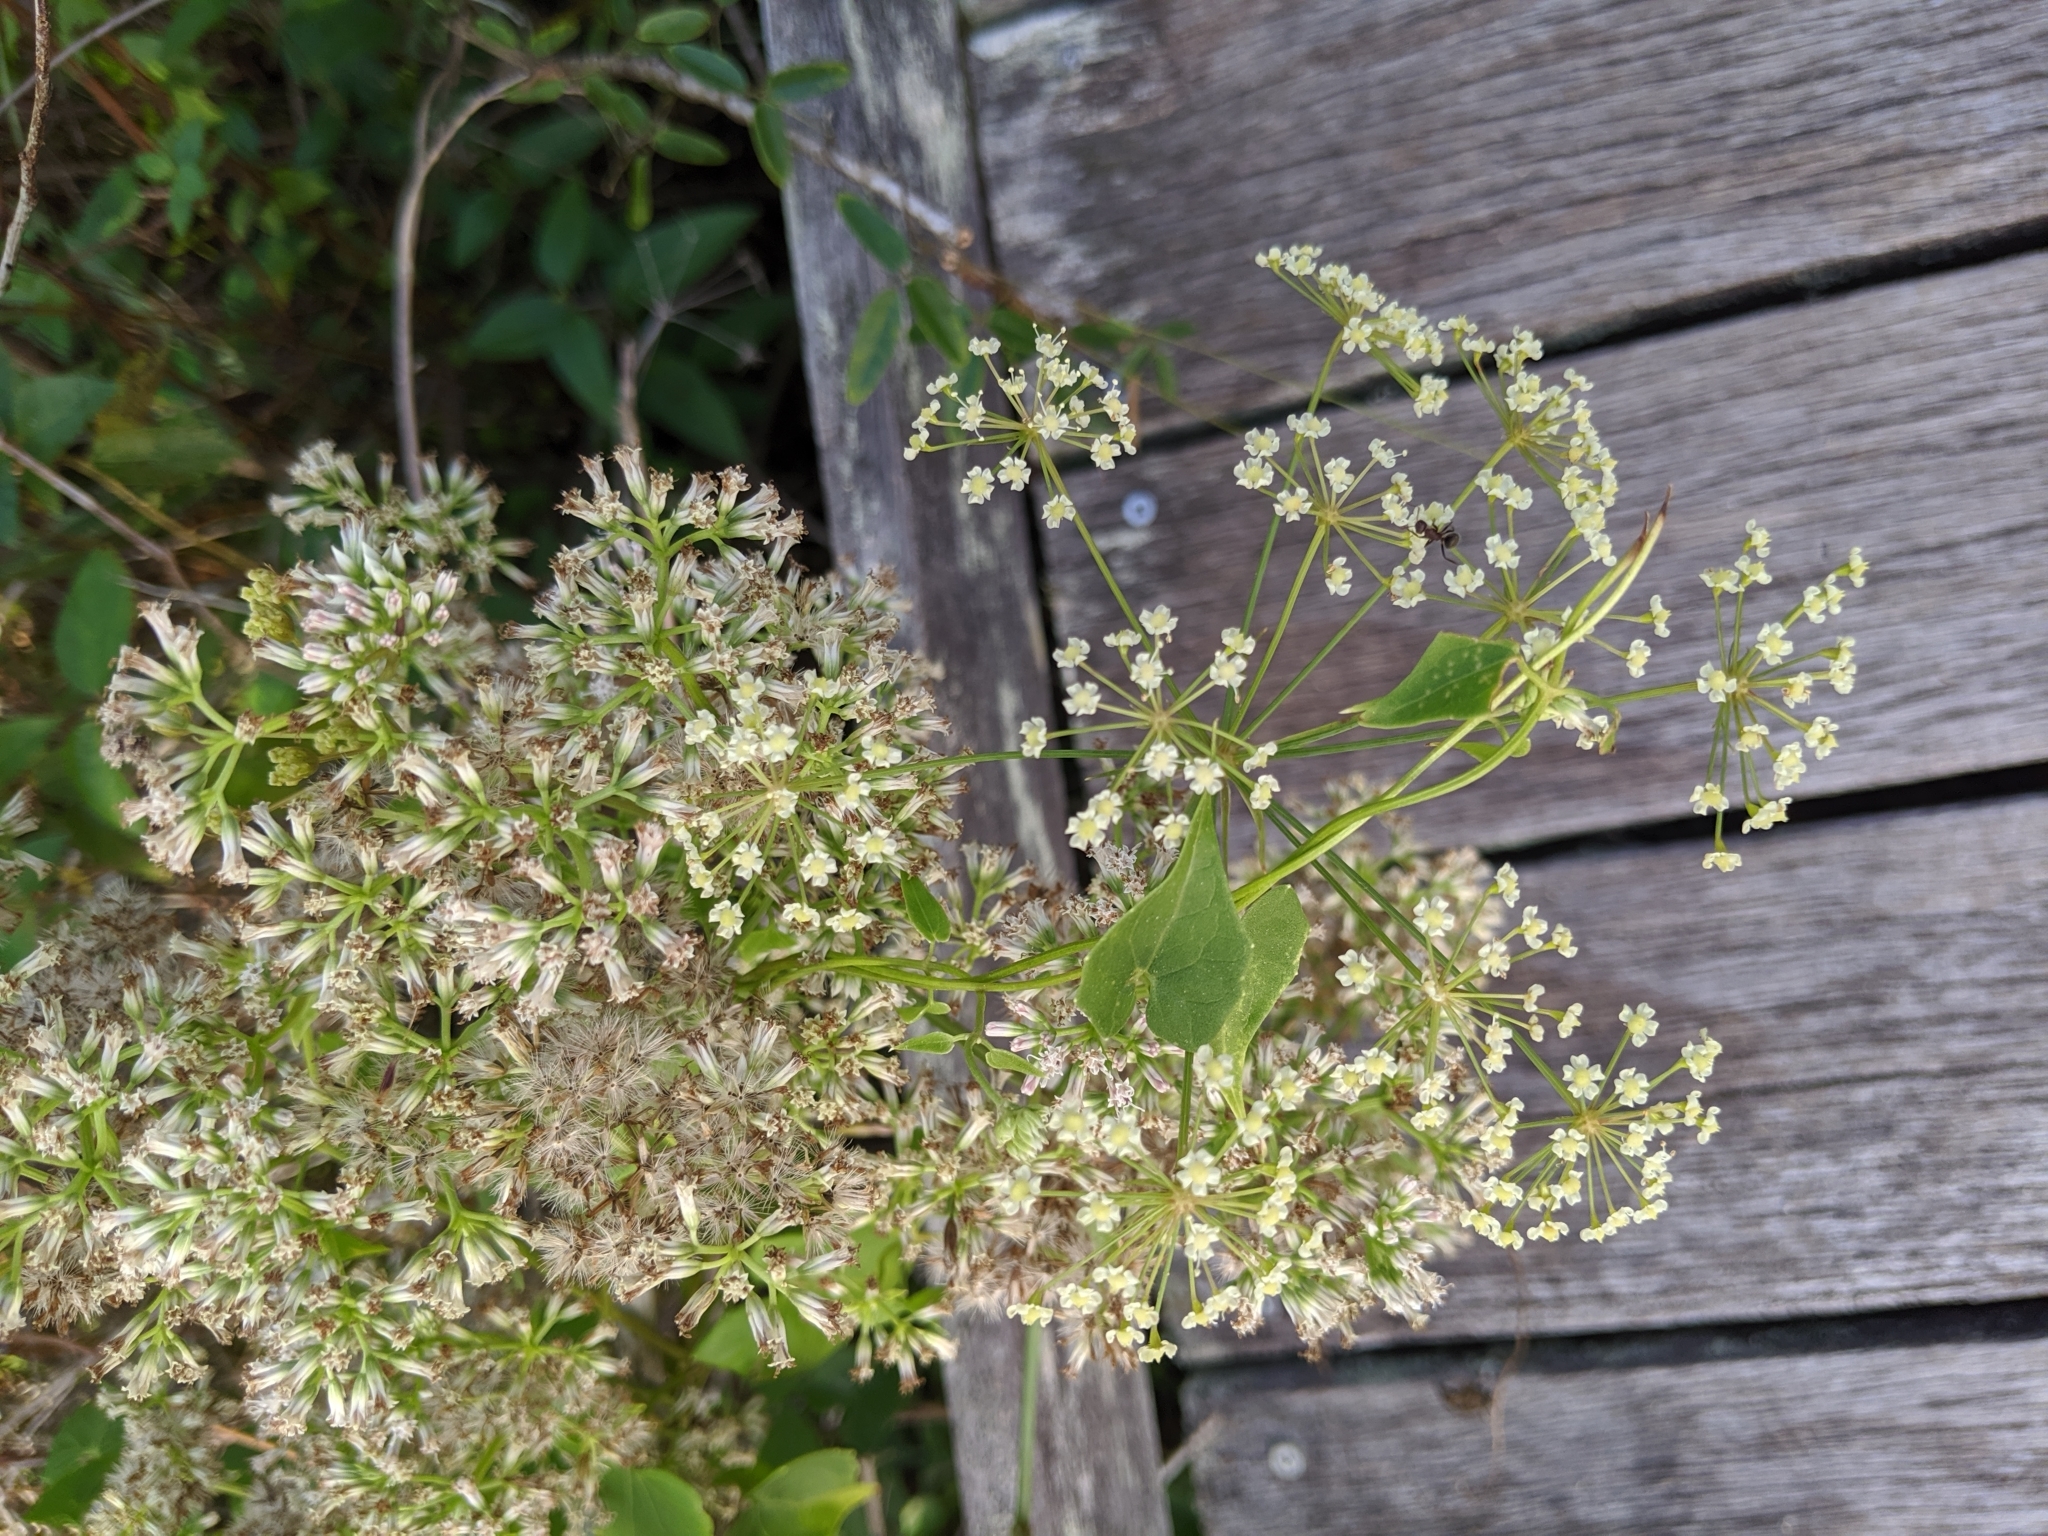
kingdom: Plantae
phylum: Tracheophyta
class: Magnoliopsida
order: Asterales
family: Asteraceae
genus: Mikania
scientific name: Mikania scandens
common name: Climbing hempvine
